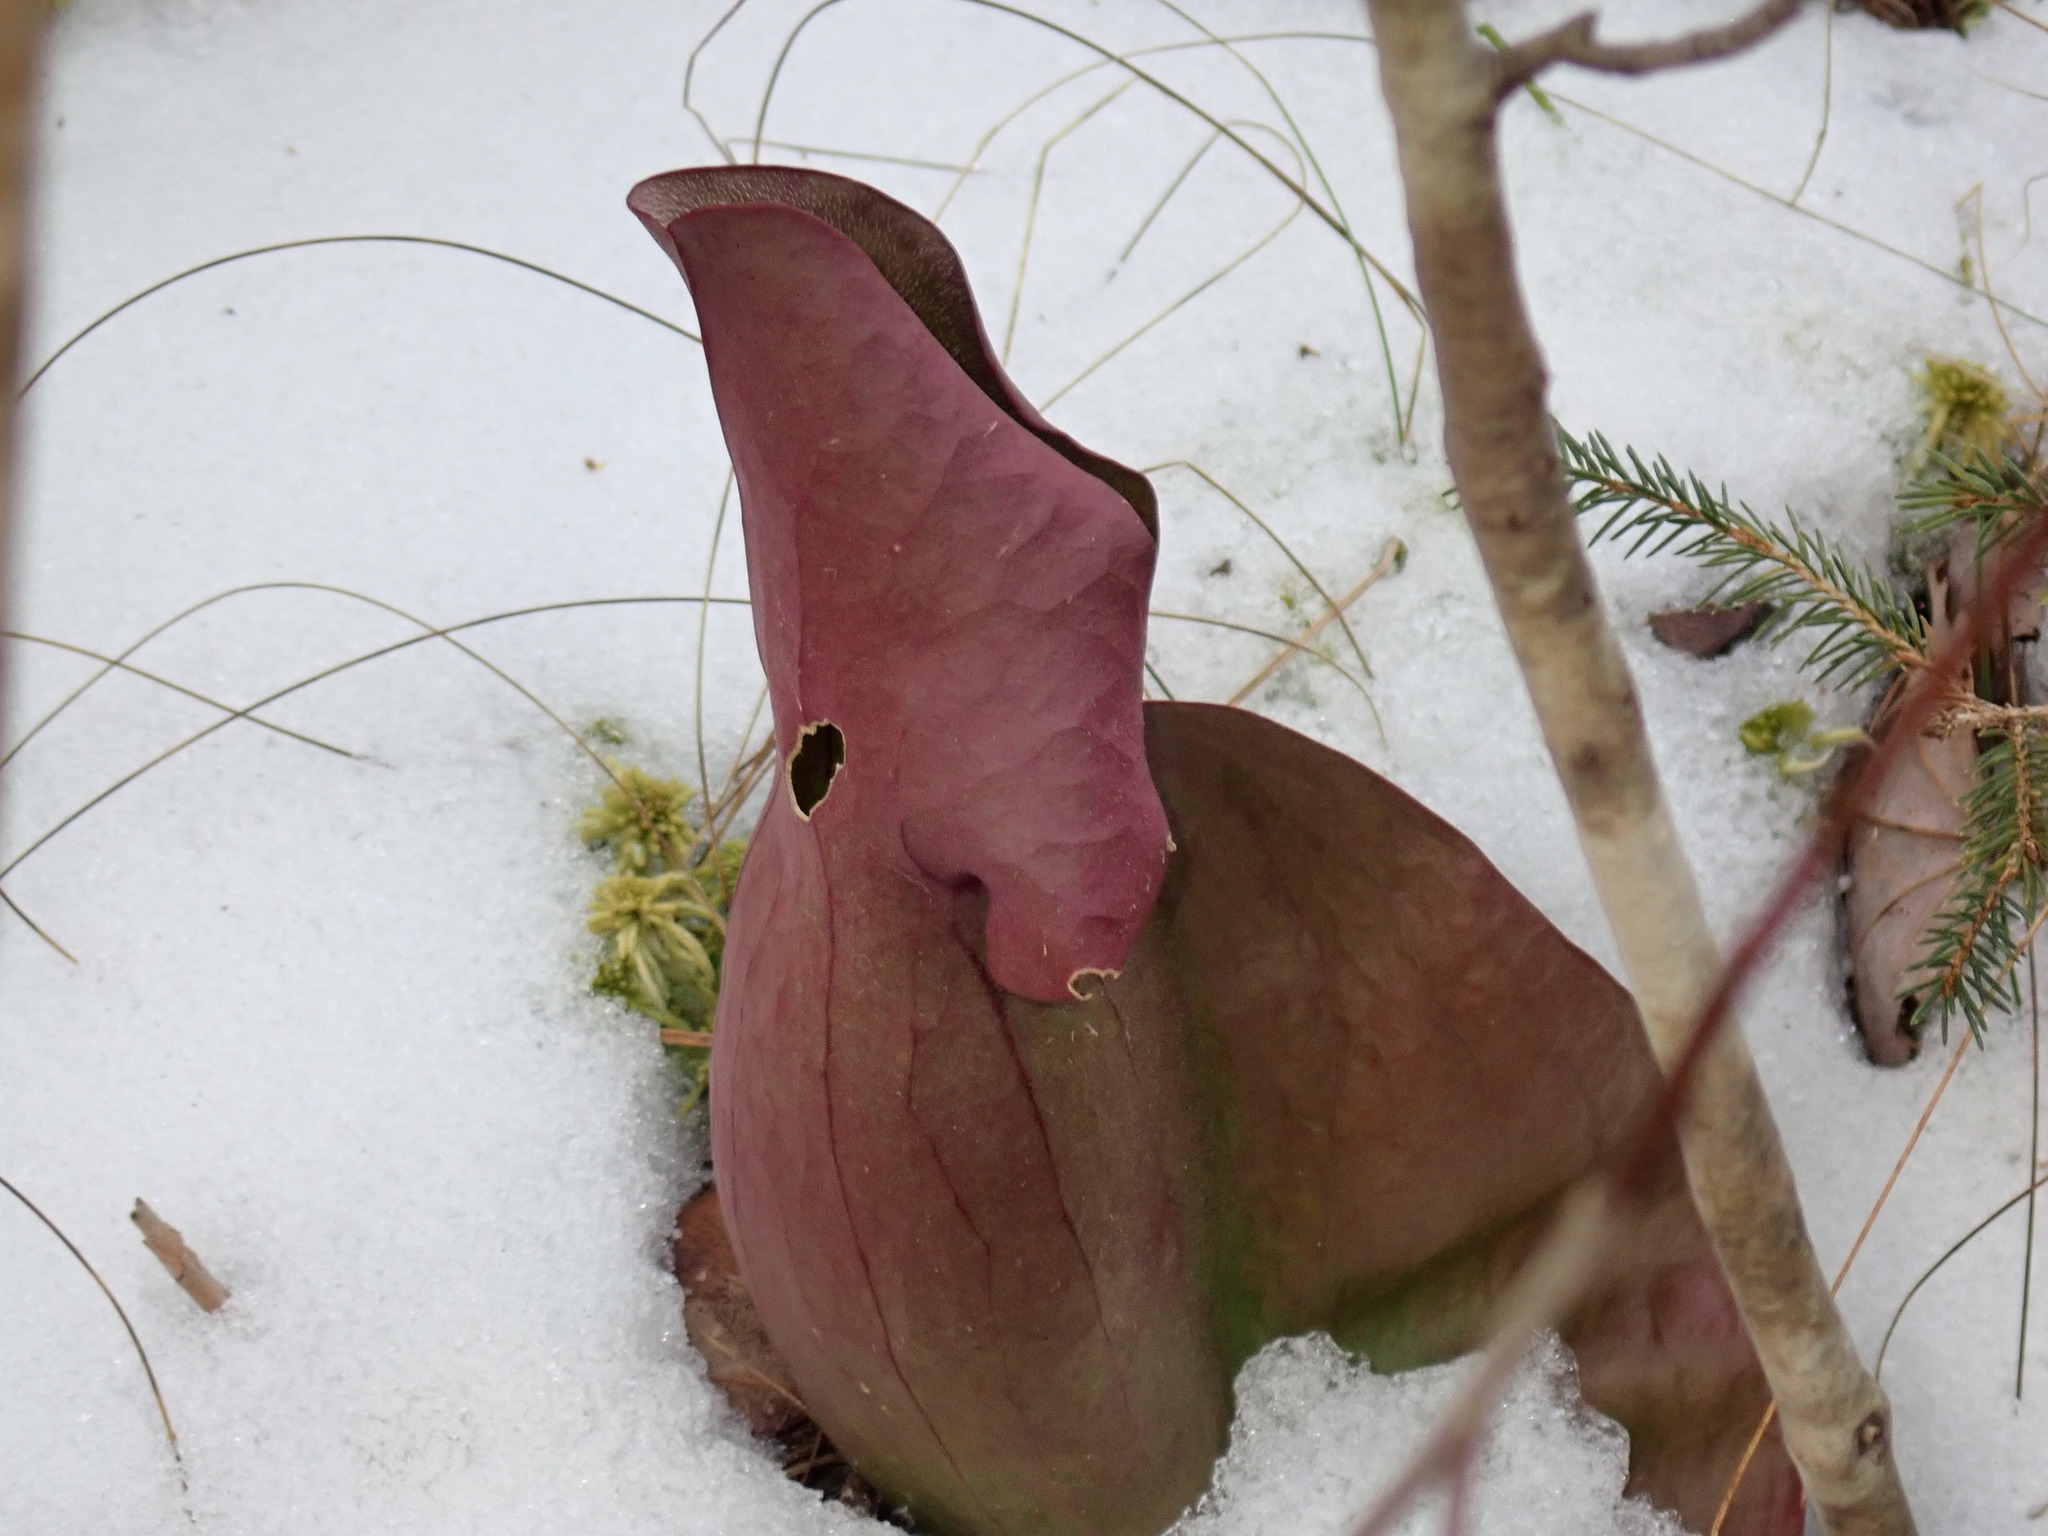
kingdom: Plantae
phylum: Tracheophyta
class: Magnoliopsida
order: Ericales
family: Sarraceniaceae
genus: Sarracenia
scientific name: Sarracenia purpurea
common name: Pitcherplant
